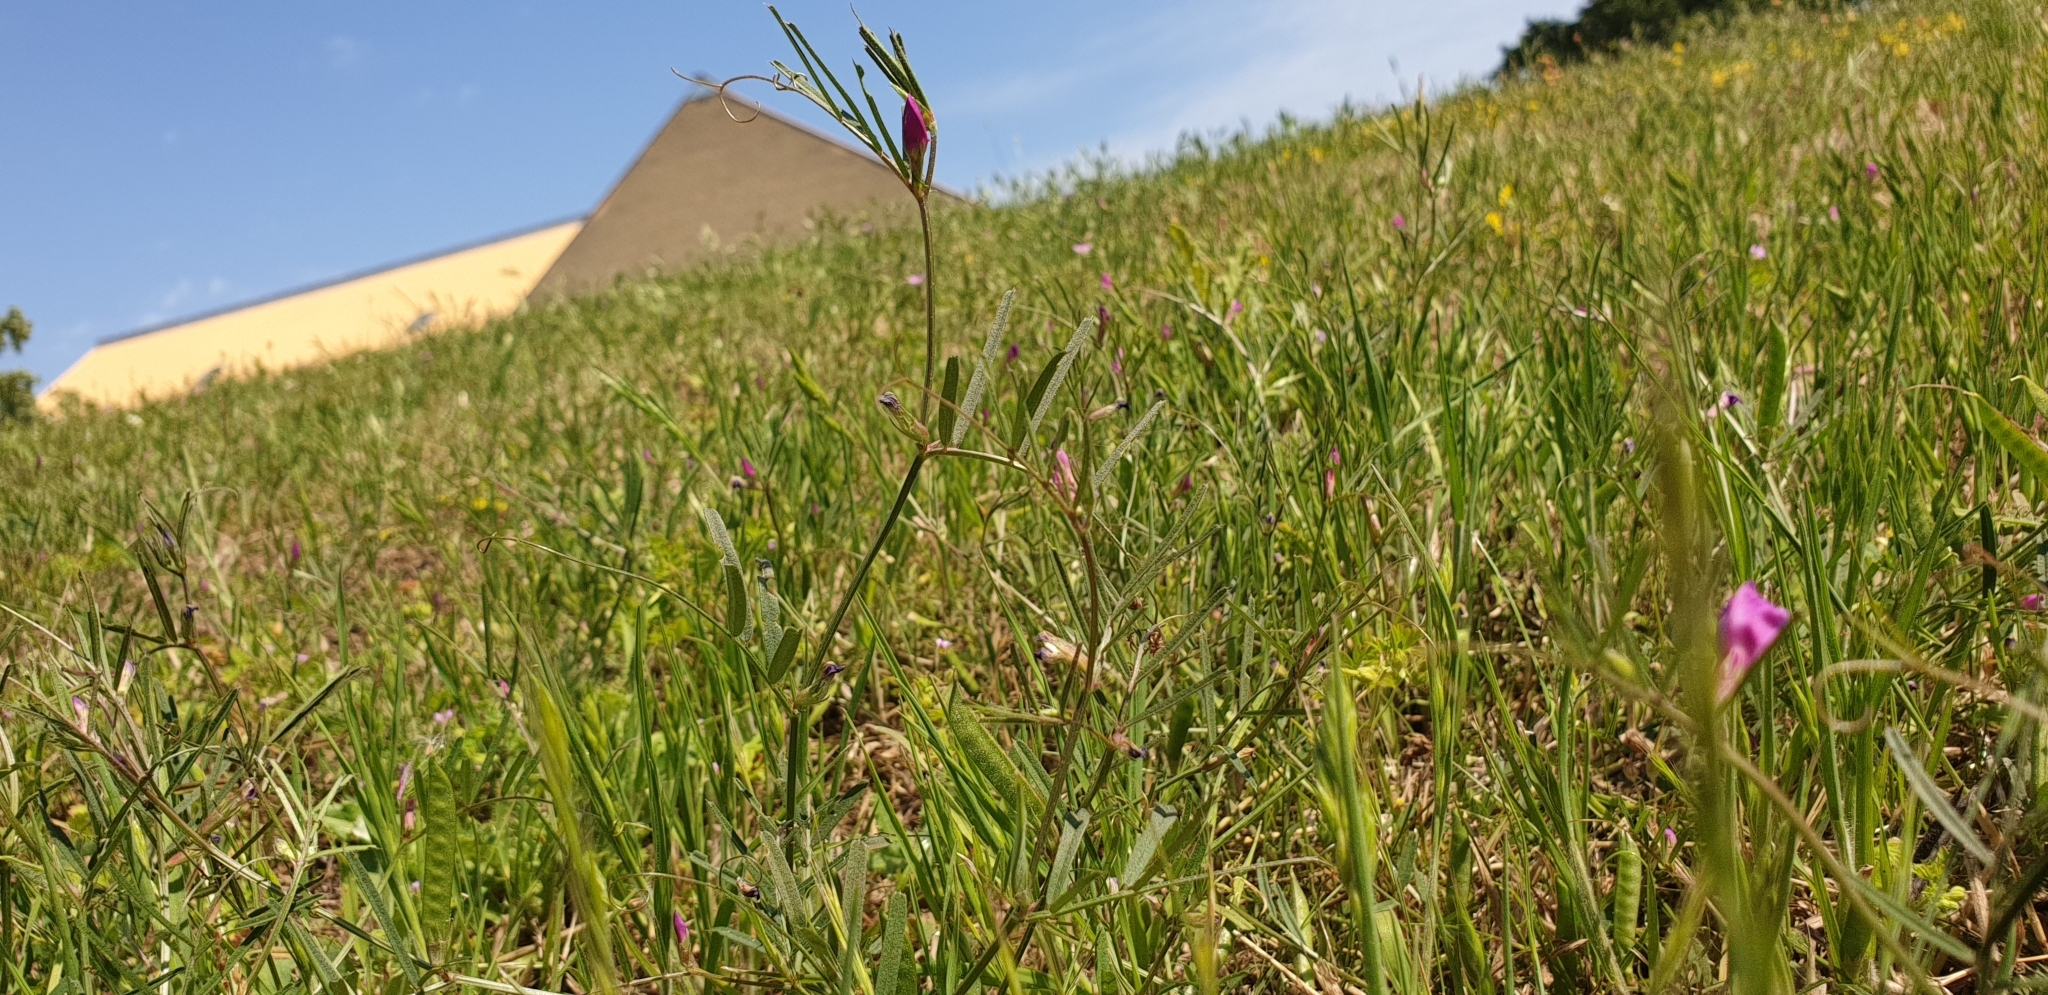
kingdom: Plantae
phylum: Tracheophyta
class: Magnoliopsida
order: Fabales
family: Fabaceae
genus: Vicia
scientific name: Vicia sativa
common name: Garden vetch
